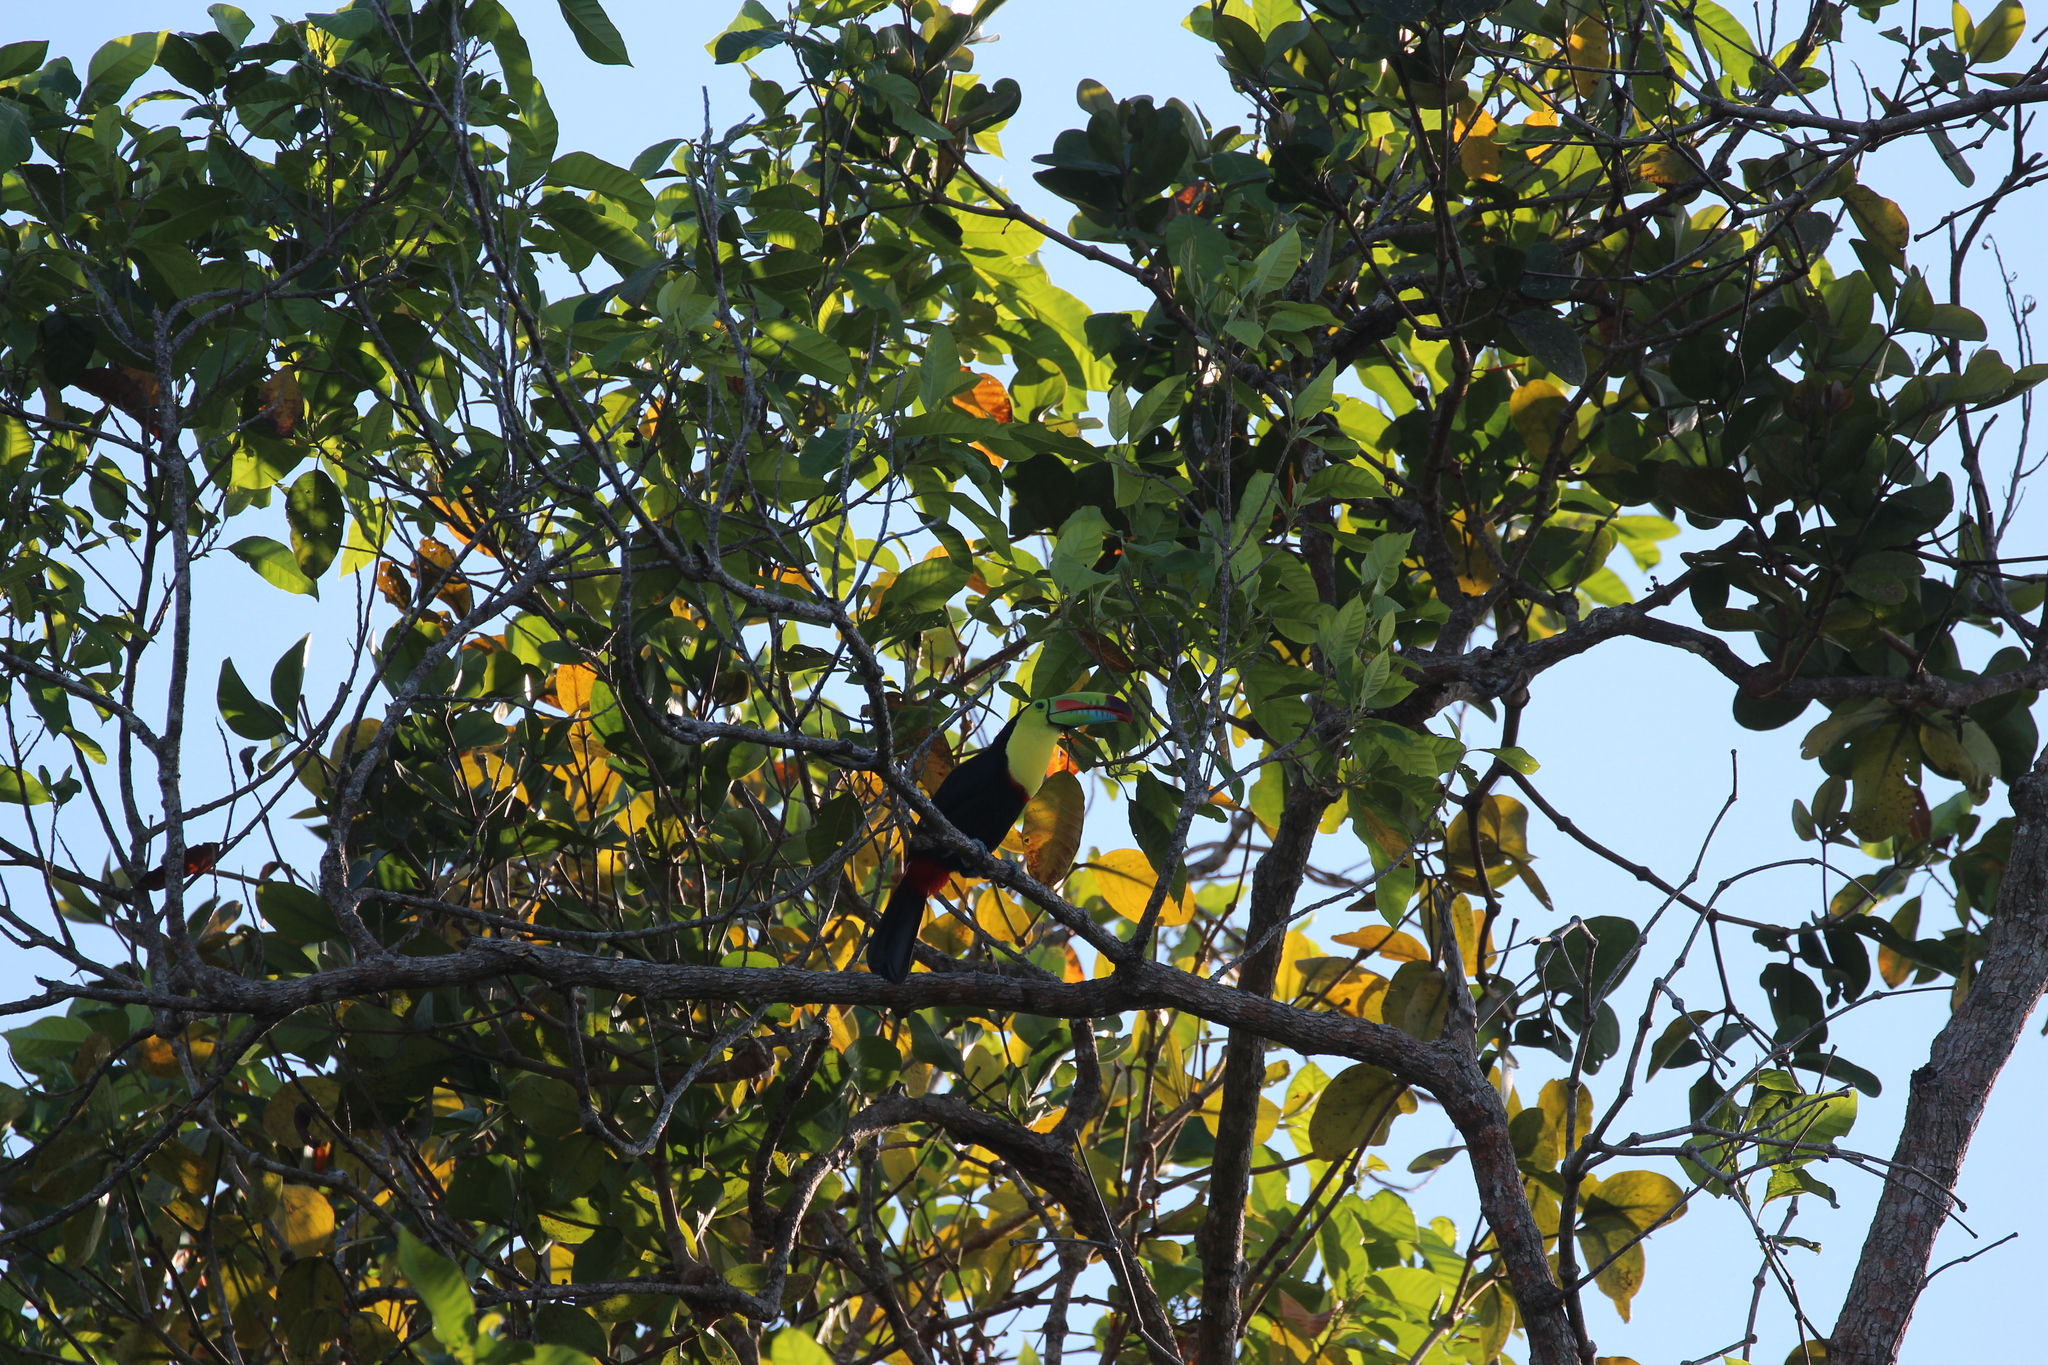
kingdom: Animalia
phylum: Chordata
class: Aves
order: Piciformes
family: Ramphastidae
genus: Ramphastos
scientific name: Ramphastos sulfuratus
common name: Keel-billed toucan
